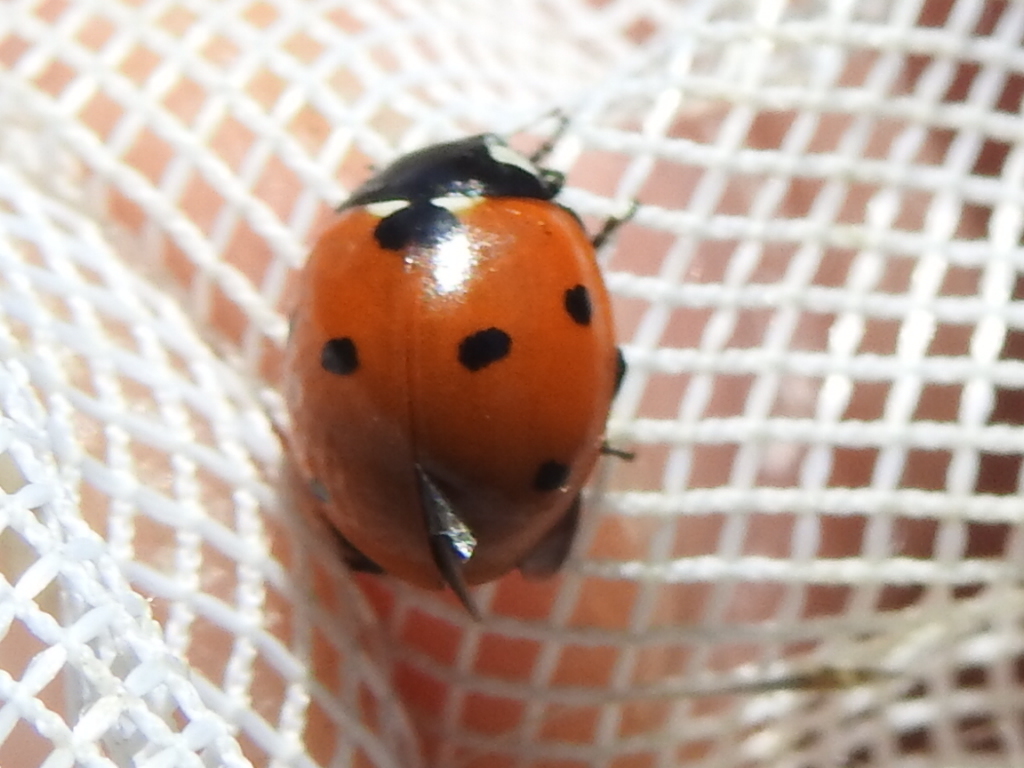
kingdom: Animalia
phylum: Arthropoda
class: Insecta
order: Coleoptera
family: Coccinellidae
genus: Coccinella
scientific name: Coccinella septempunctata
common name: Sevenspotted lady beetle
